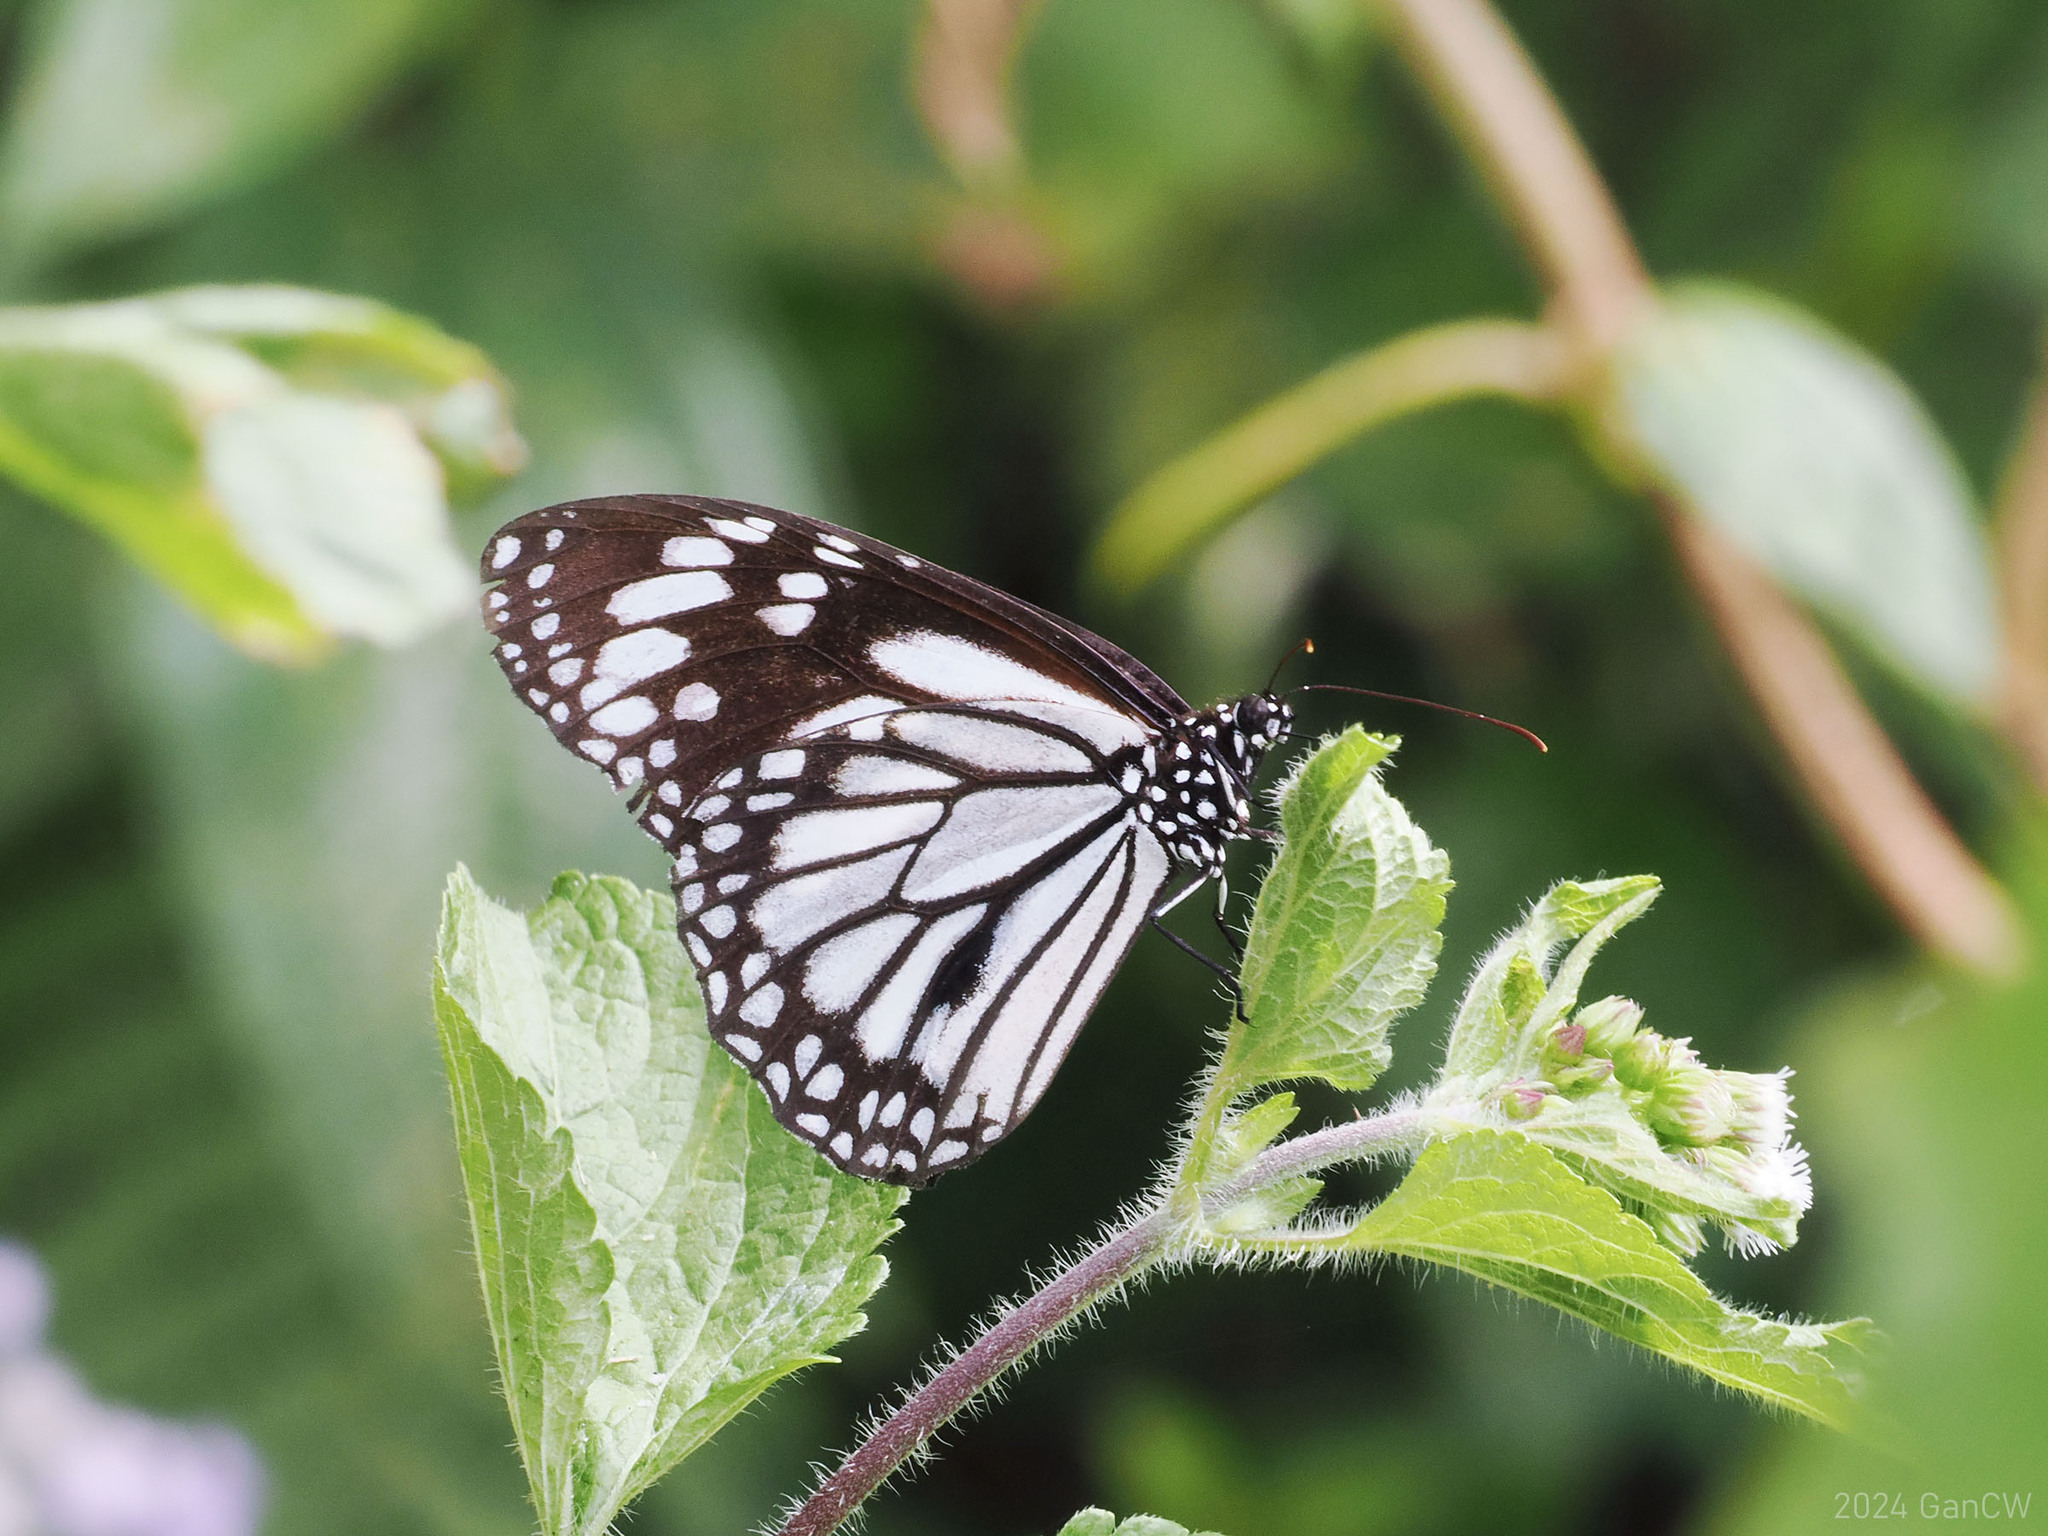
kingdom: Animalia
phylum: Arthropoda
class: Insecta
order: Lepidoptera
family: Nymphalidae
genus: Danaus
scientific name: Danaus melanippus
